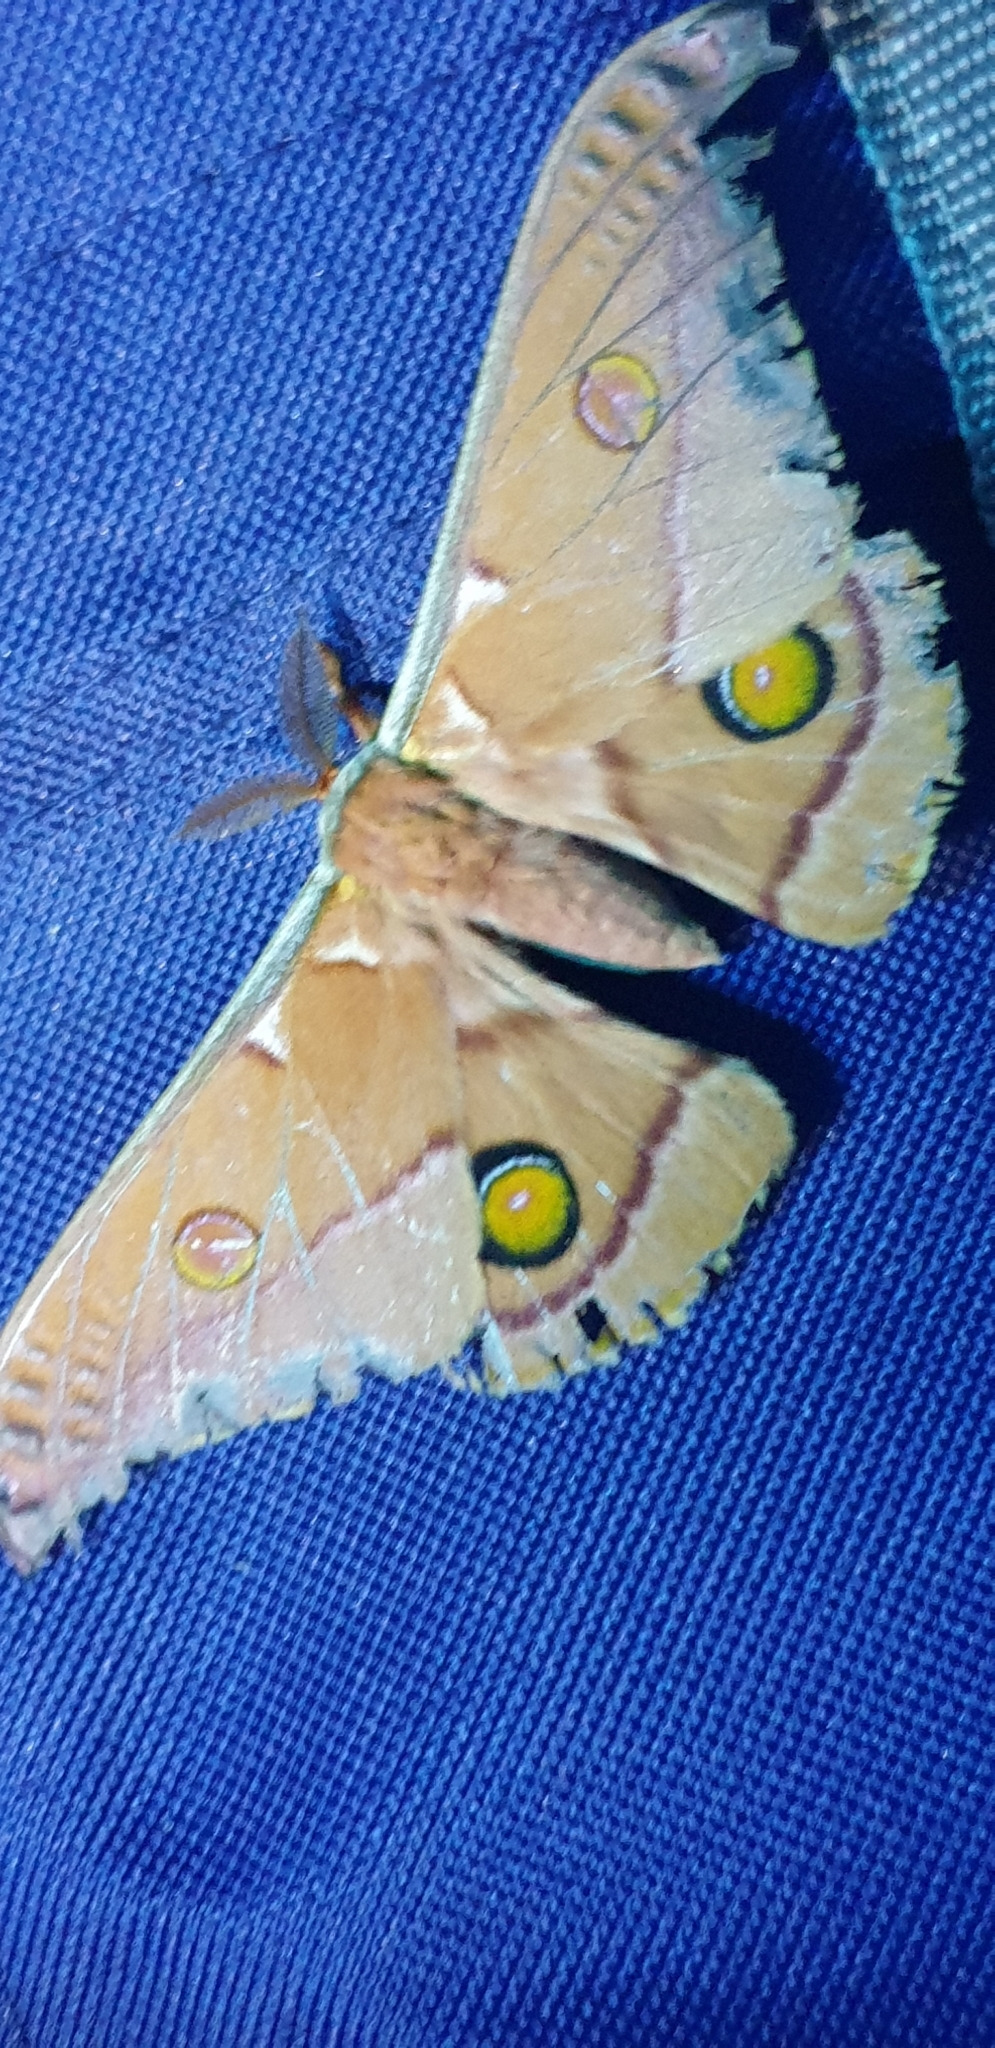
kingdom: Animalia
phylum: Arthropoda
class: Insecta
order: Lepidoptera
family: Saturniidae
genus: Opodiphthera
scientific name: Opodiphthera
